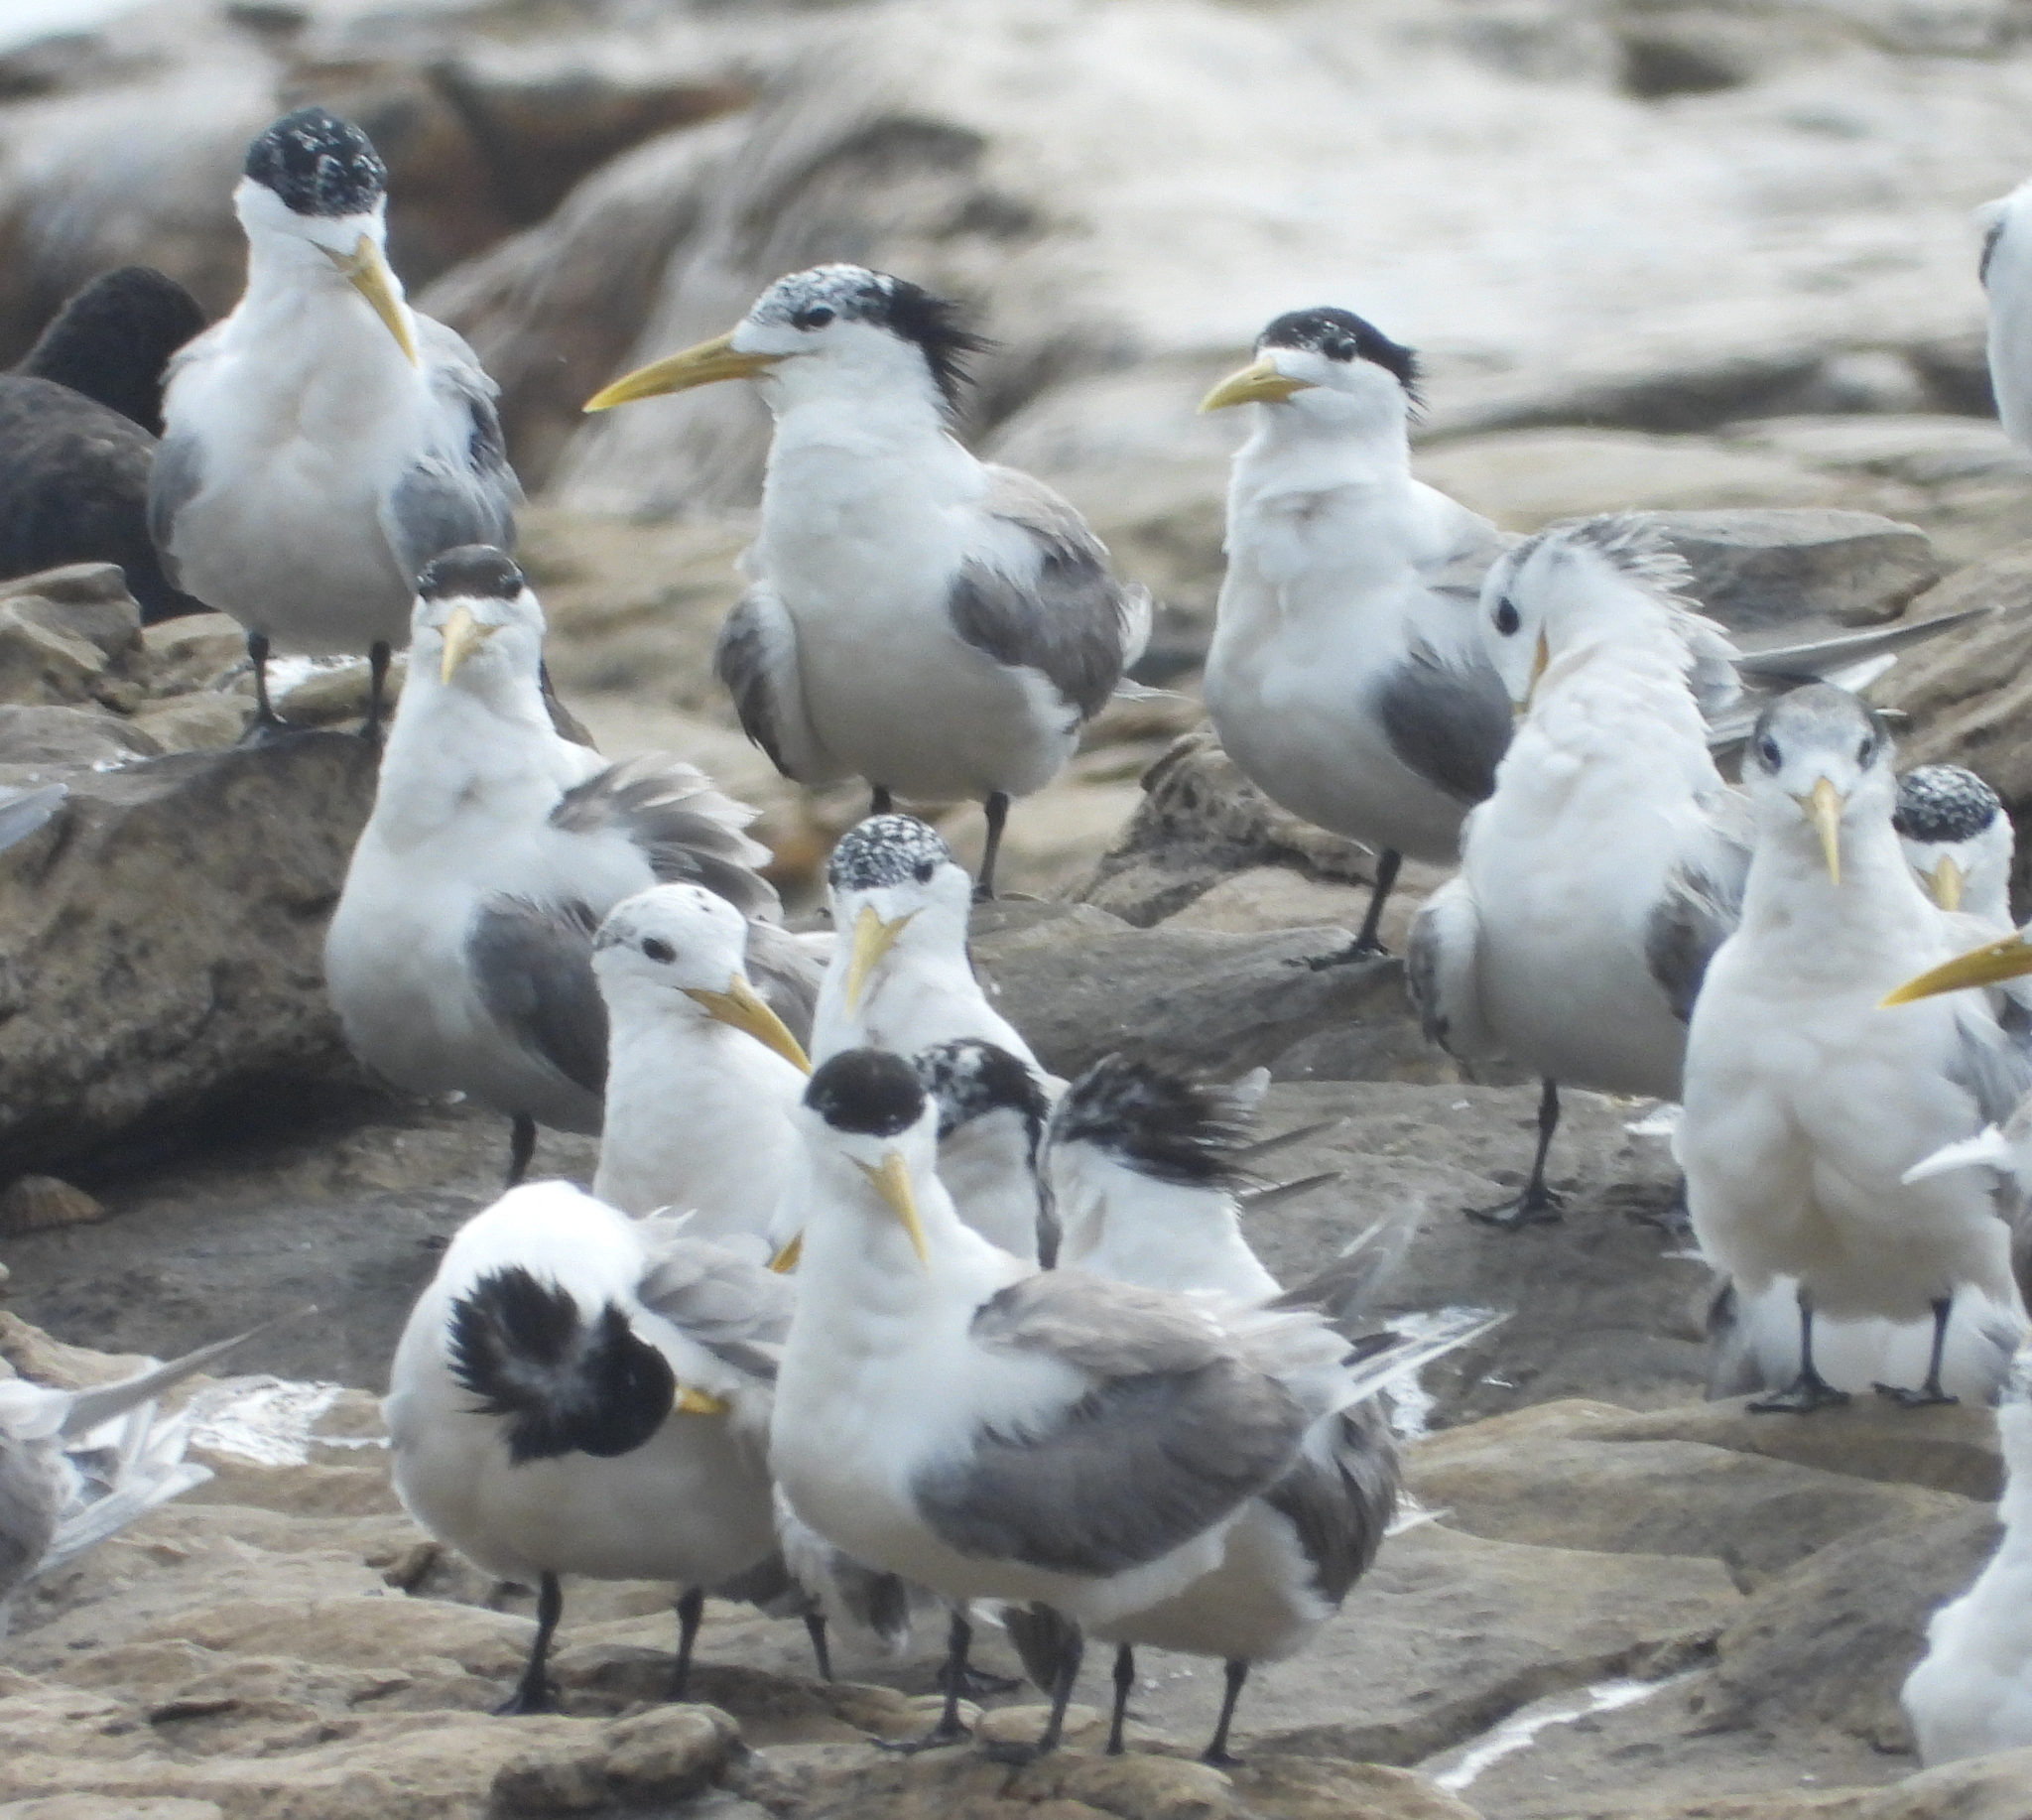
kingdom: Animalia
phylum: Chordata
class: Aves
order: Charadriiformes
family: Laridae
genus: Thalasseus
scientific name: Thalasseus bergii
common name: Greater crested tern
